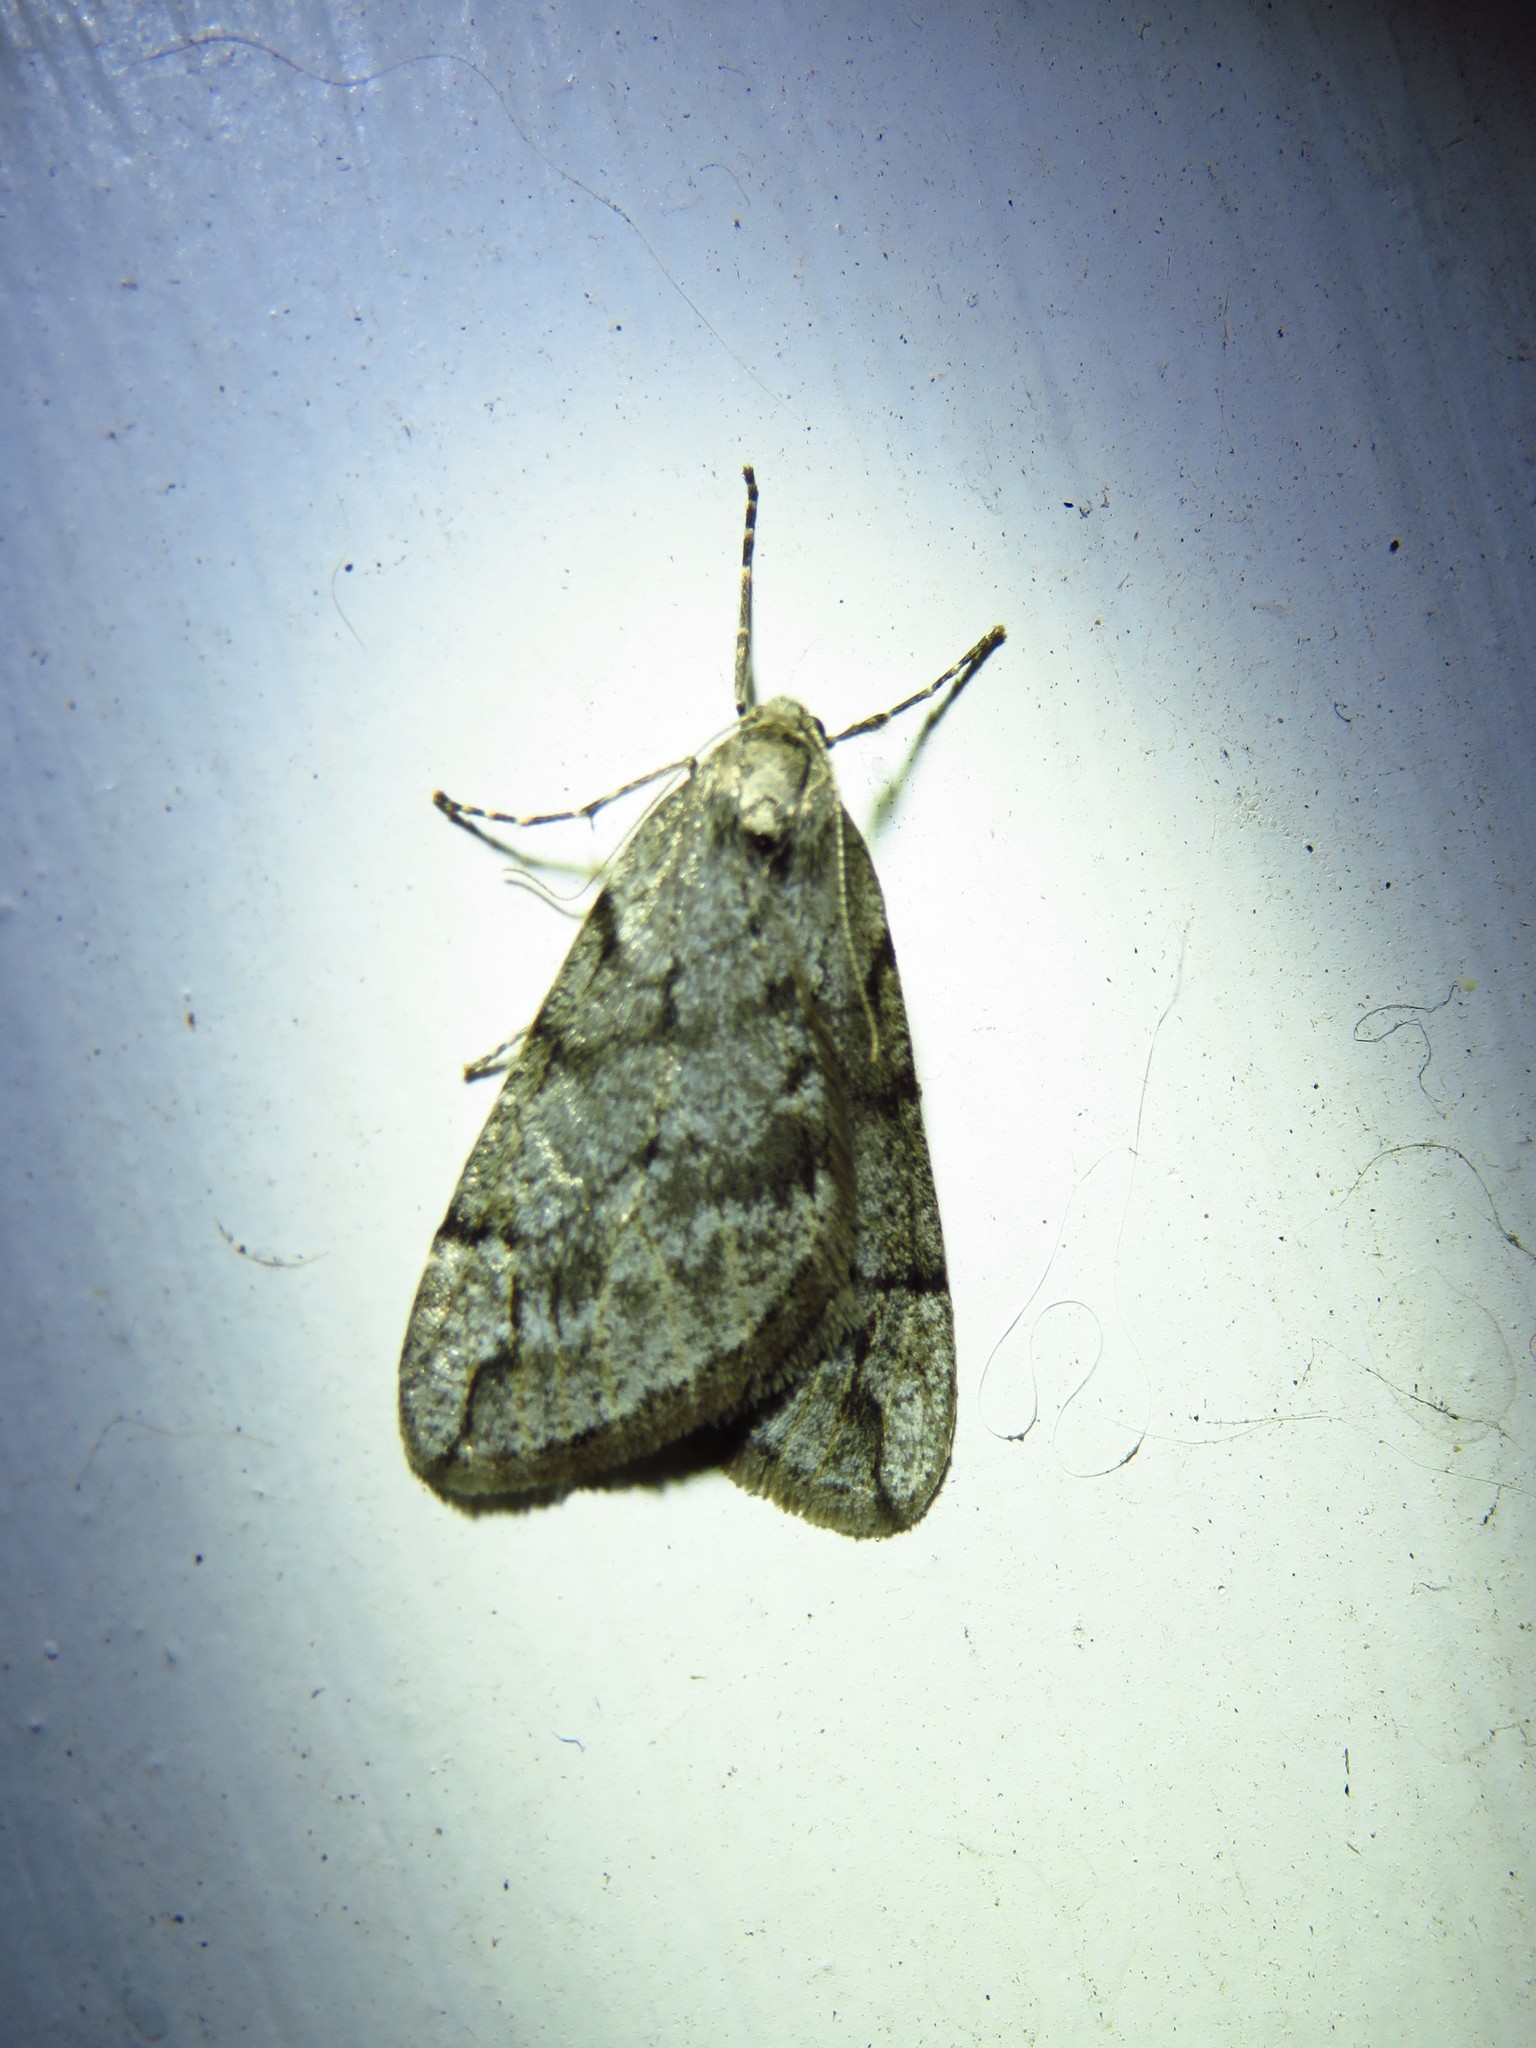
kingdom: Animalia
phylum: Arthropoda
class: Insecta
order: Lepidoptera
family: Geometridae
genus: Paleacrita
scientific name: Paleacrita vernata
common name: Spring cankerworm
